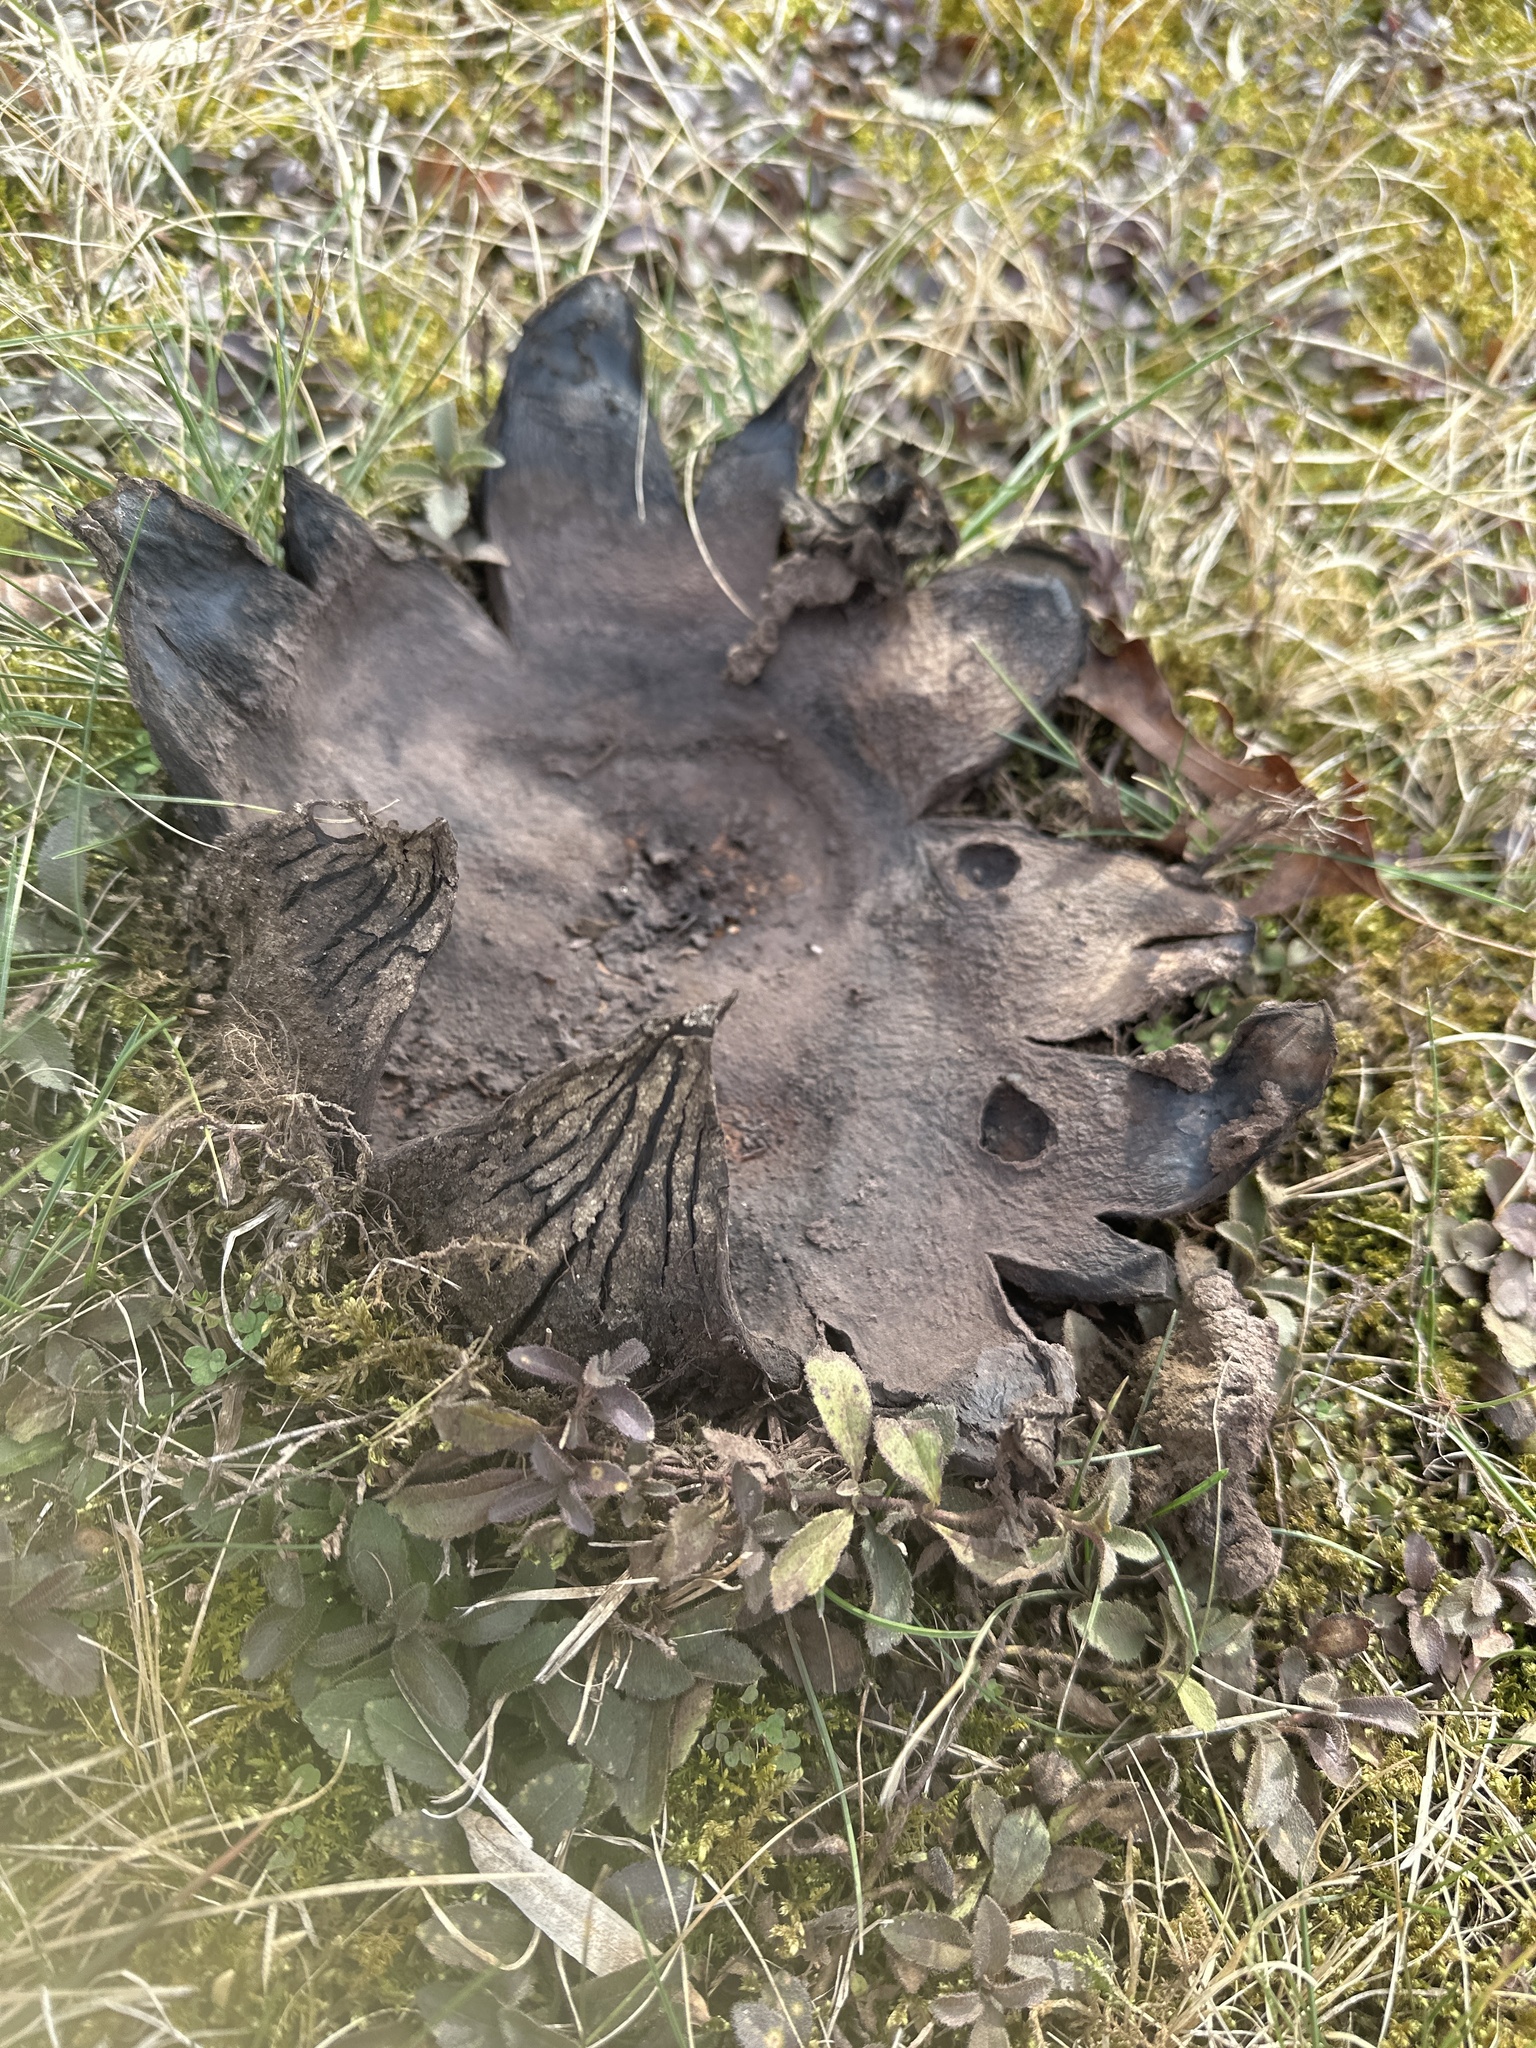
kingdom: Fungi
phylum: Basidiomycota
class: Agaricomycetes
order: Boletales
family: Sclerodermataceae
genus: Scleroderma
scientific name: Scleroderma polyrhizum
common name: Many-rooted earthball
